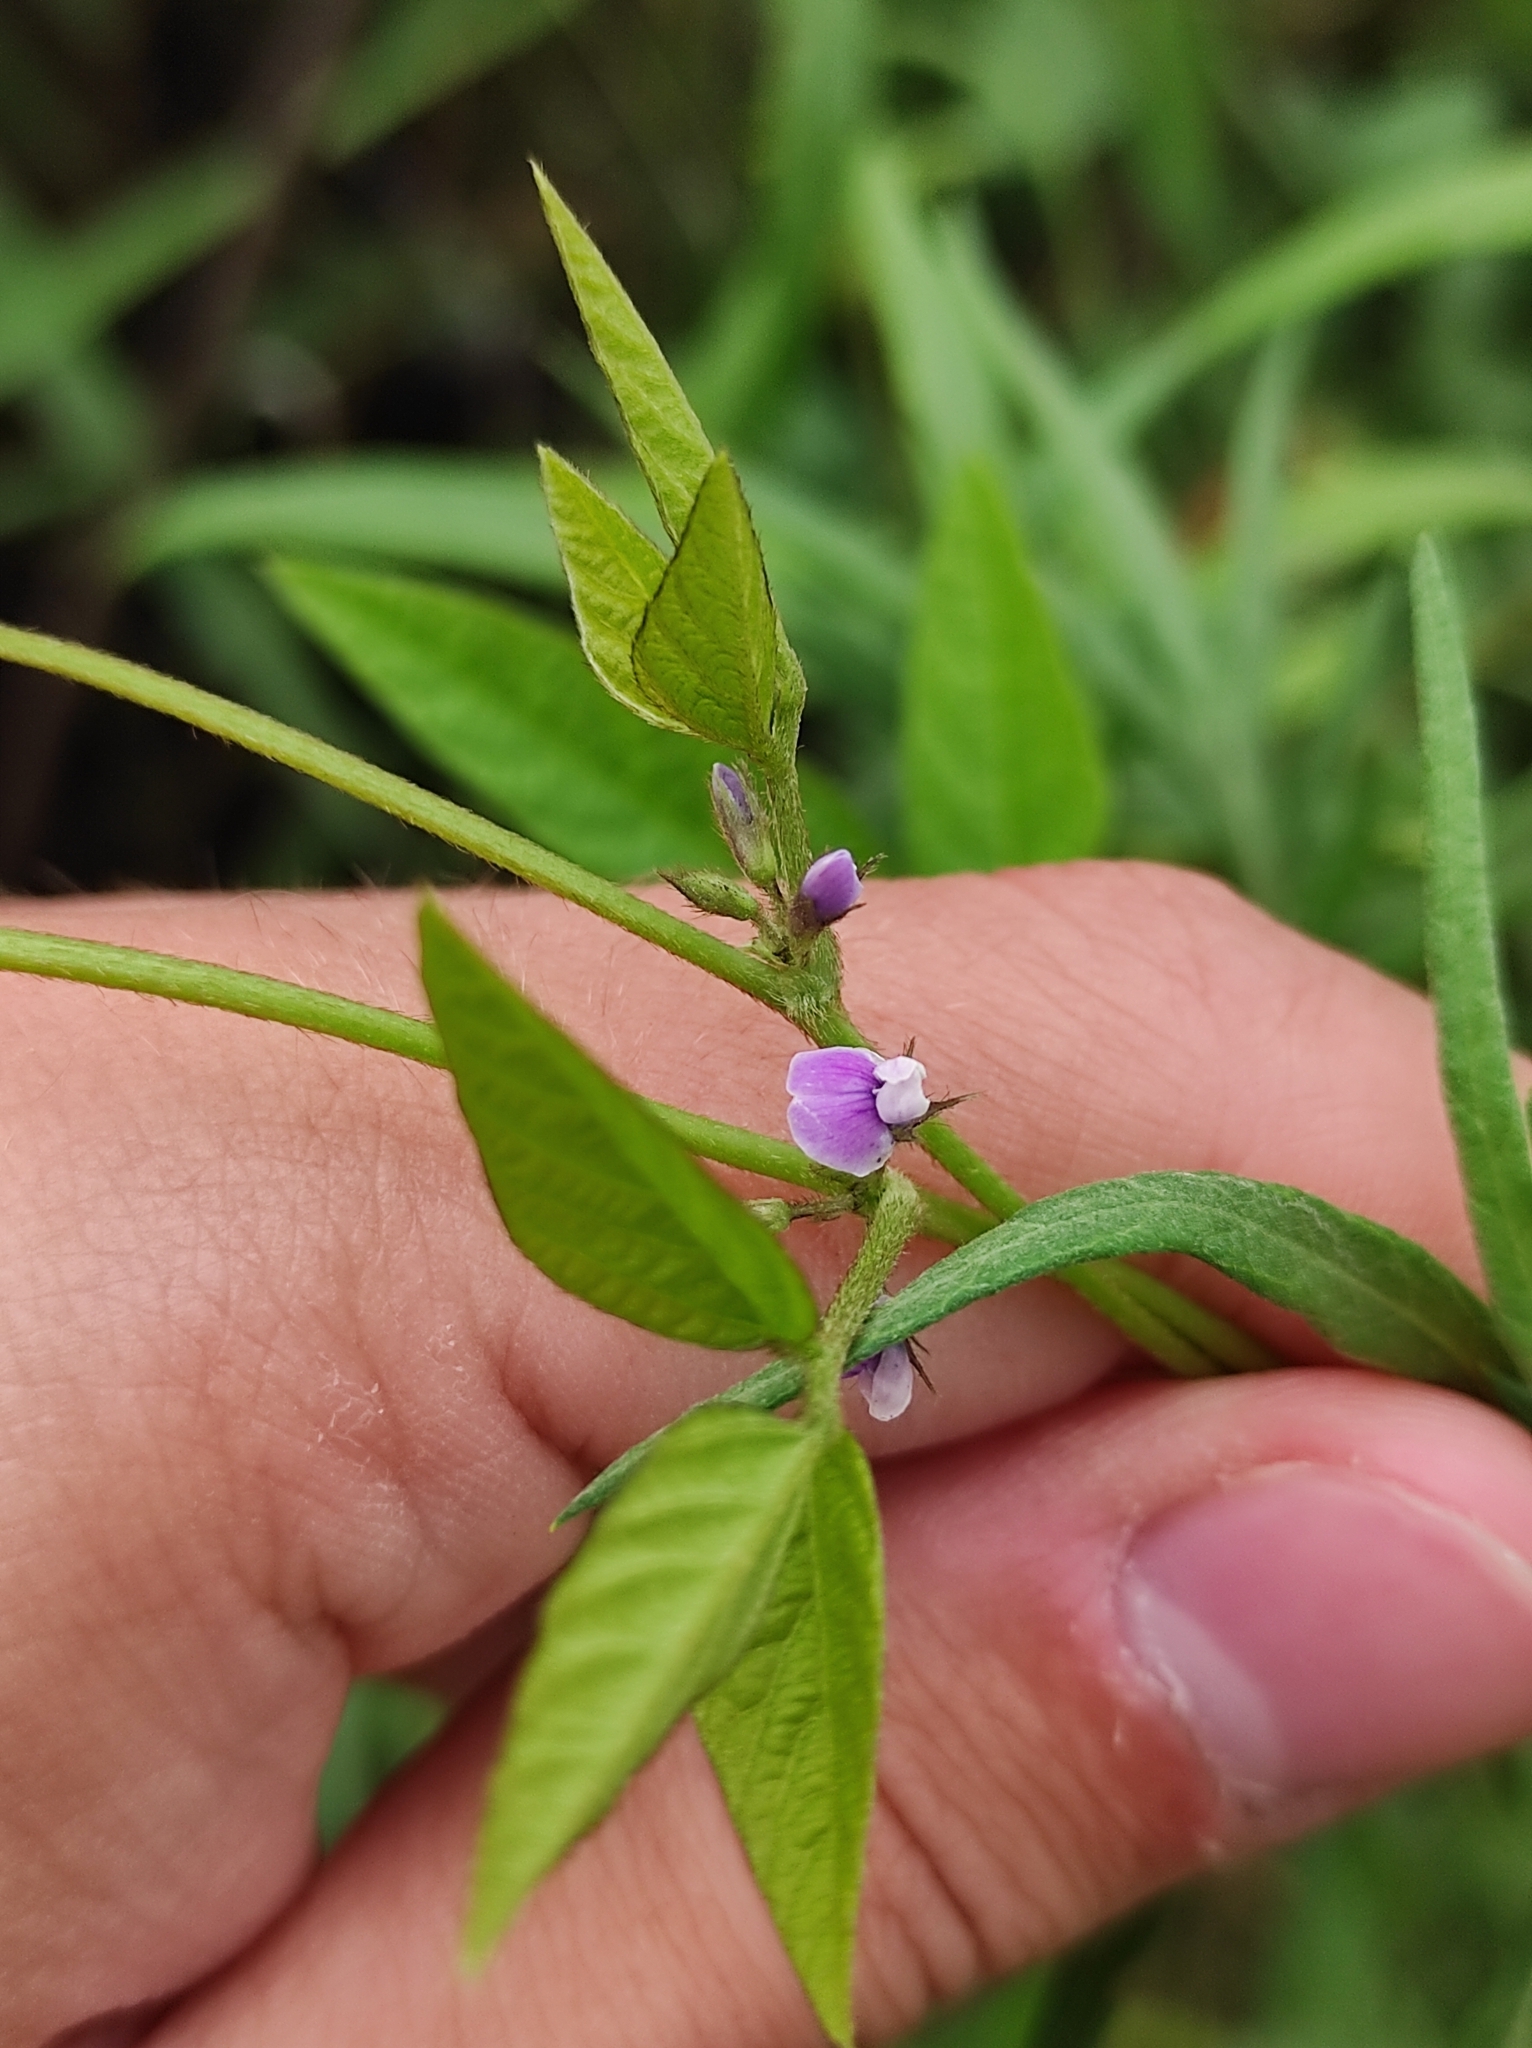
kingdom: Plantae
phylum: Tracheophyta
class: Magnoliopsida
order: Fabales
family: Fabaceae
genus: Glycine
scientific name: Glycine max
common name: Soya-bean
